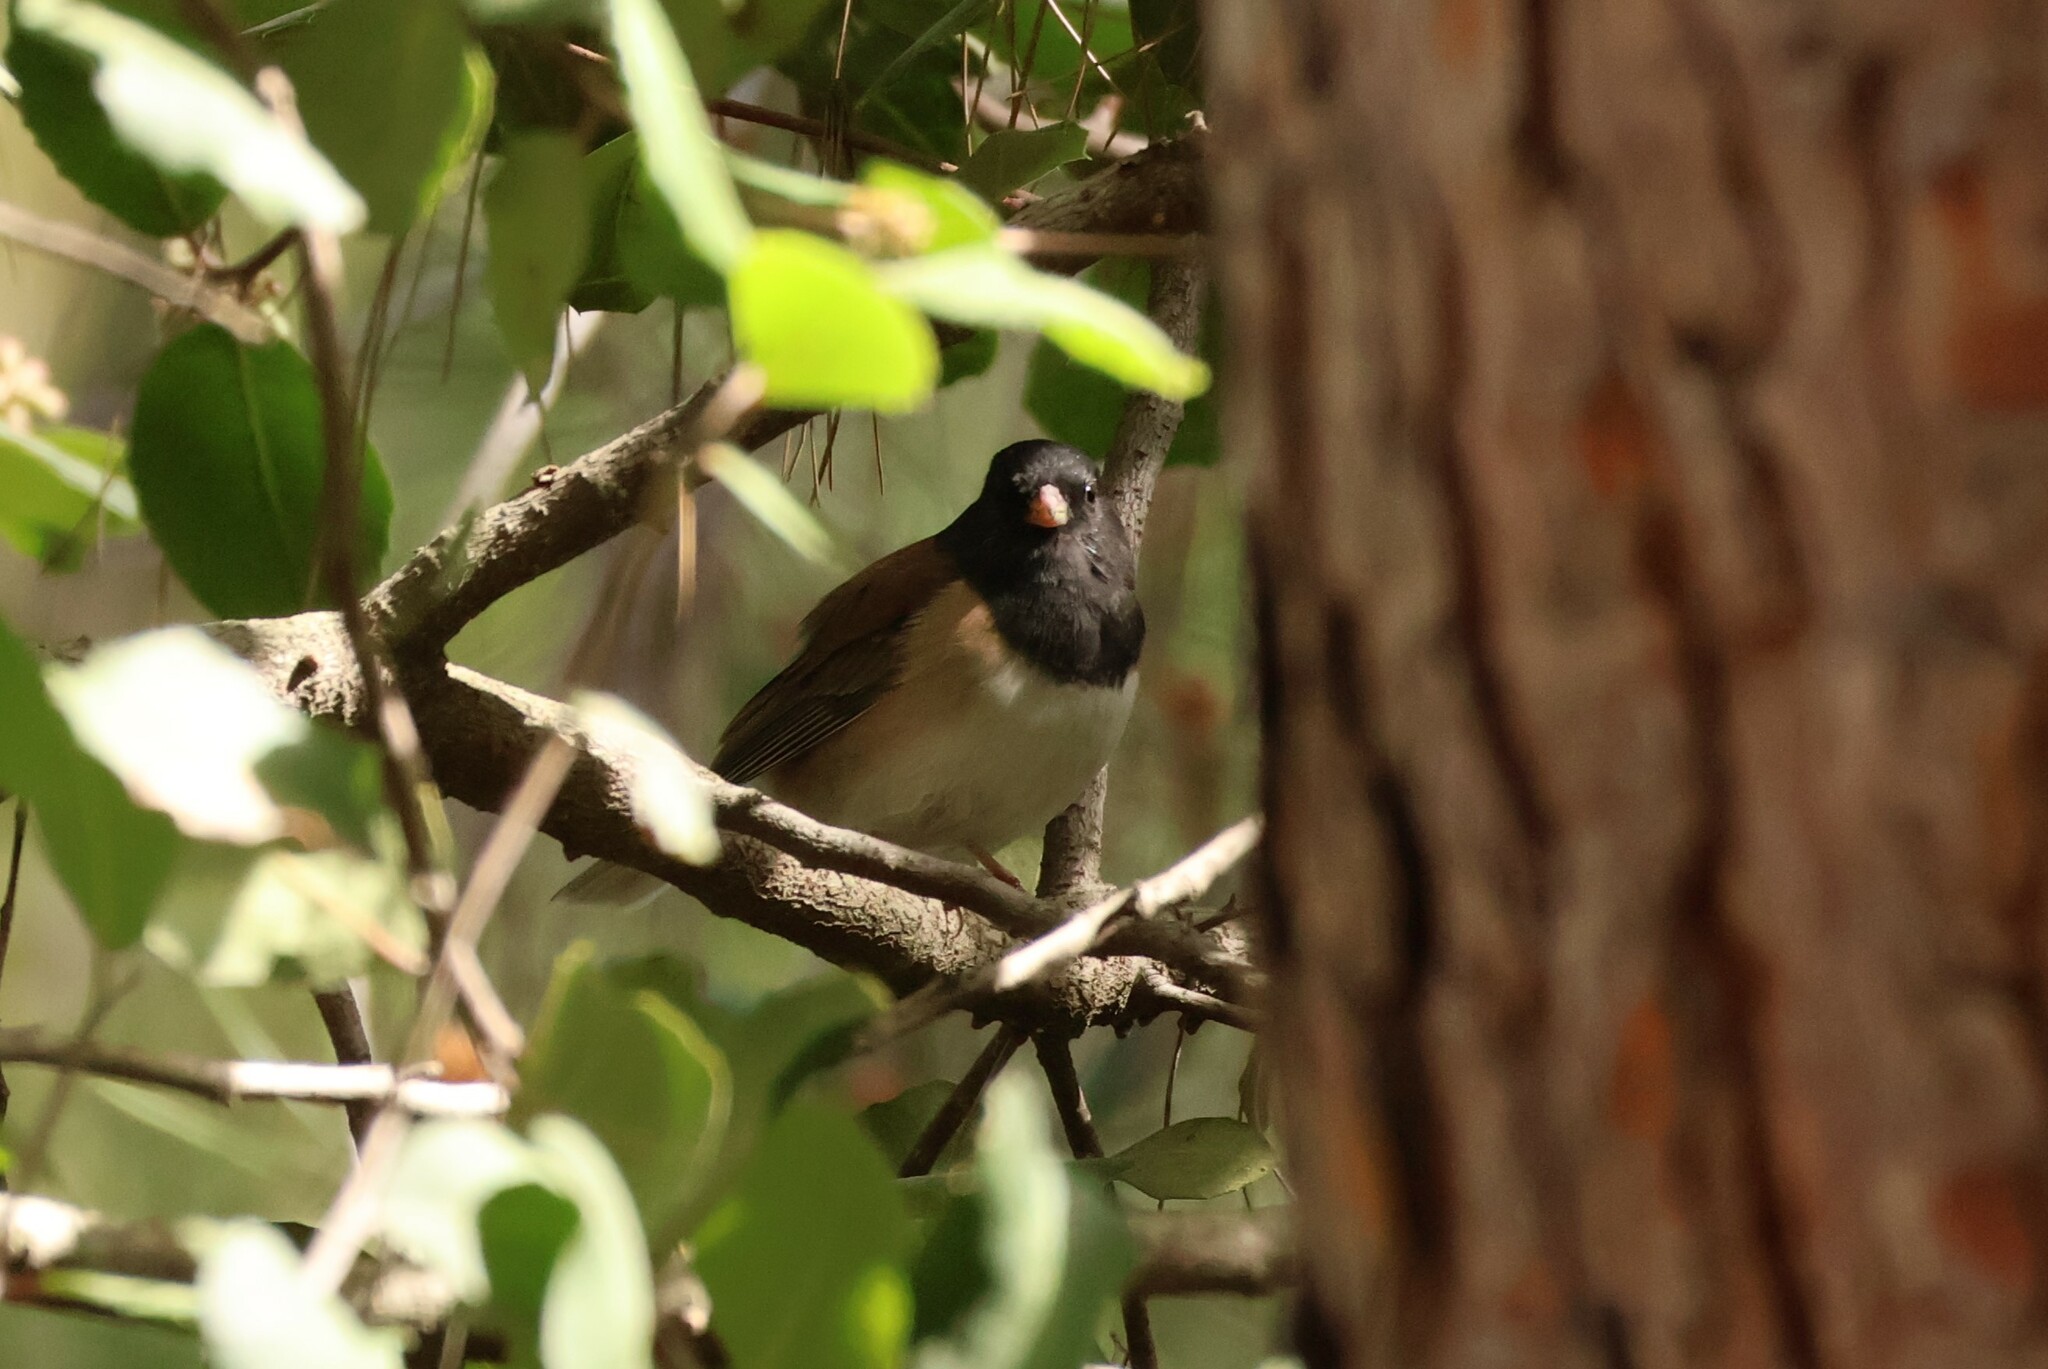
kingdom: Animalia
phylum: Chordata
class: Aves
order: Passeriformes
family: Passerellidae
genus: Junco
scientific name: Junco hyemalis
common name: Dark-eyed junco
